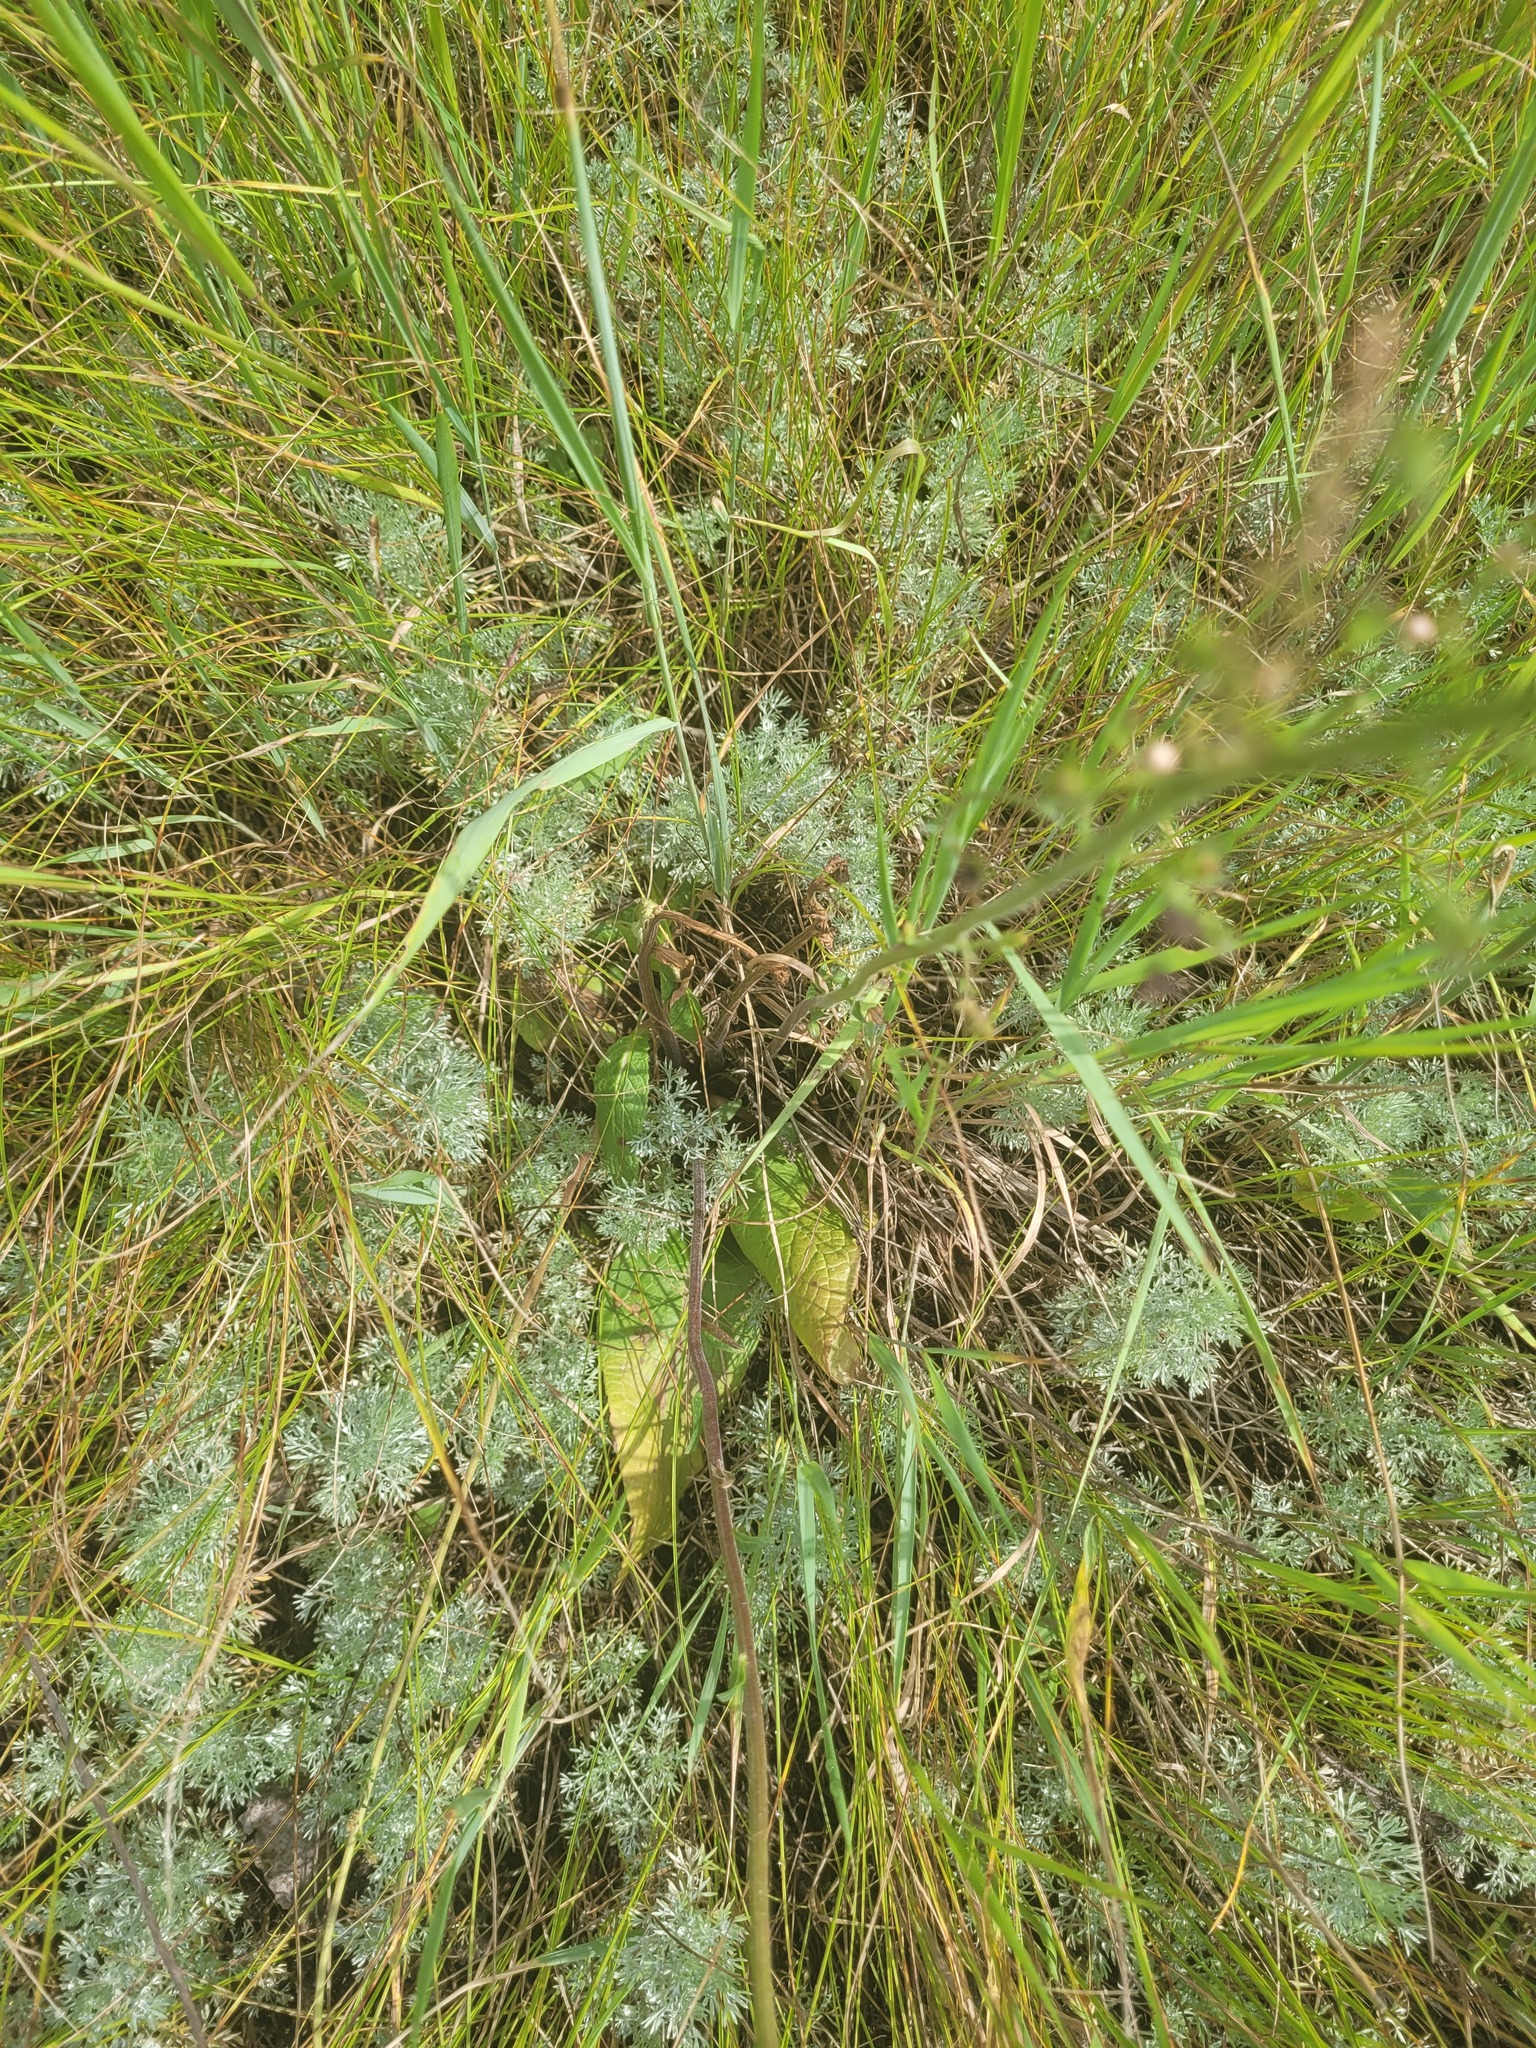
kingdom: Plantae
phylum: Tracheophyta
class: Magnoliopsida
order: Asterales
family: Asteraceae
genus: Artemisia
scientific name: Artemisia austriaca
